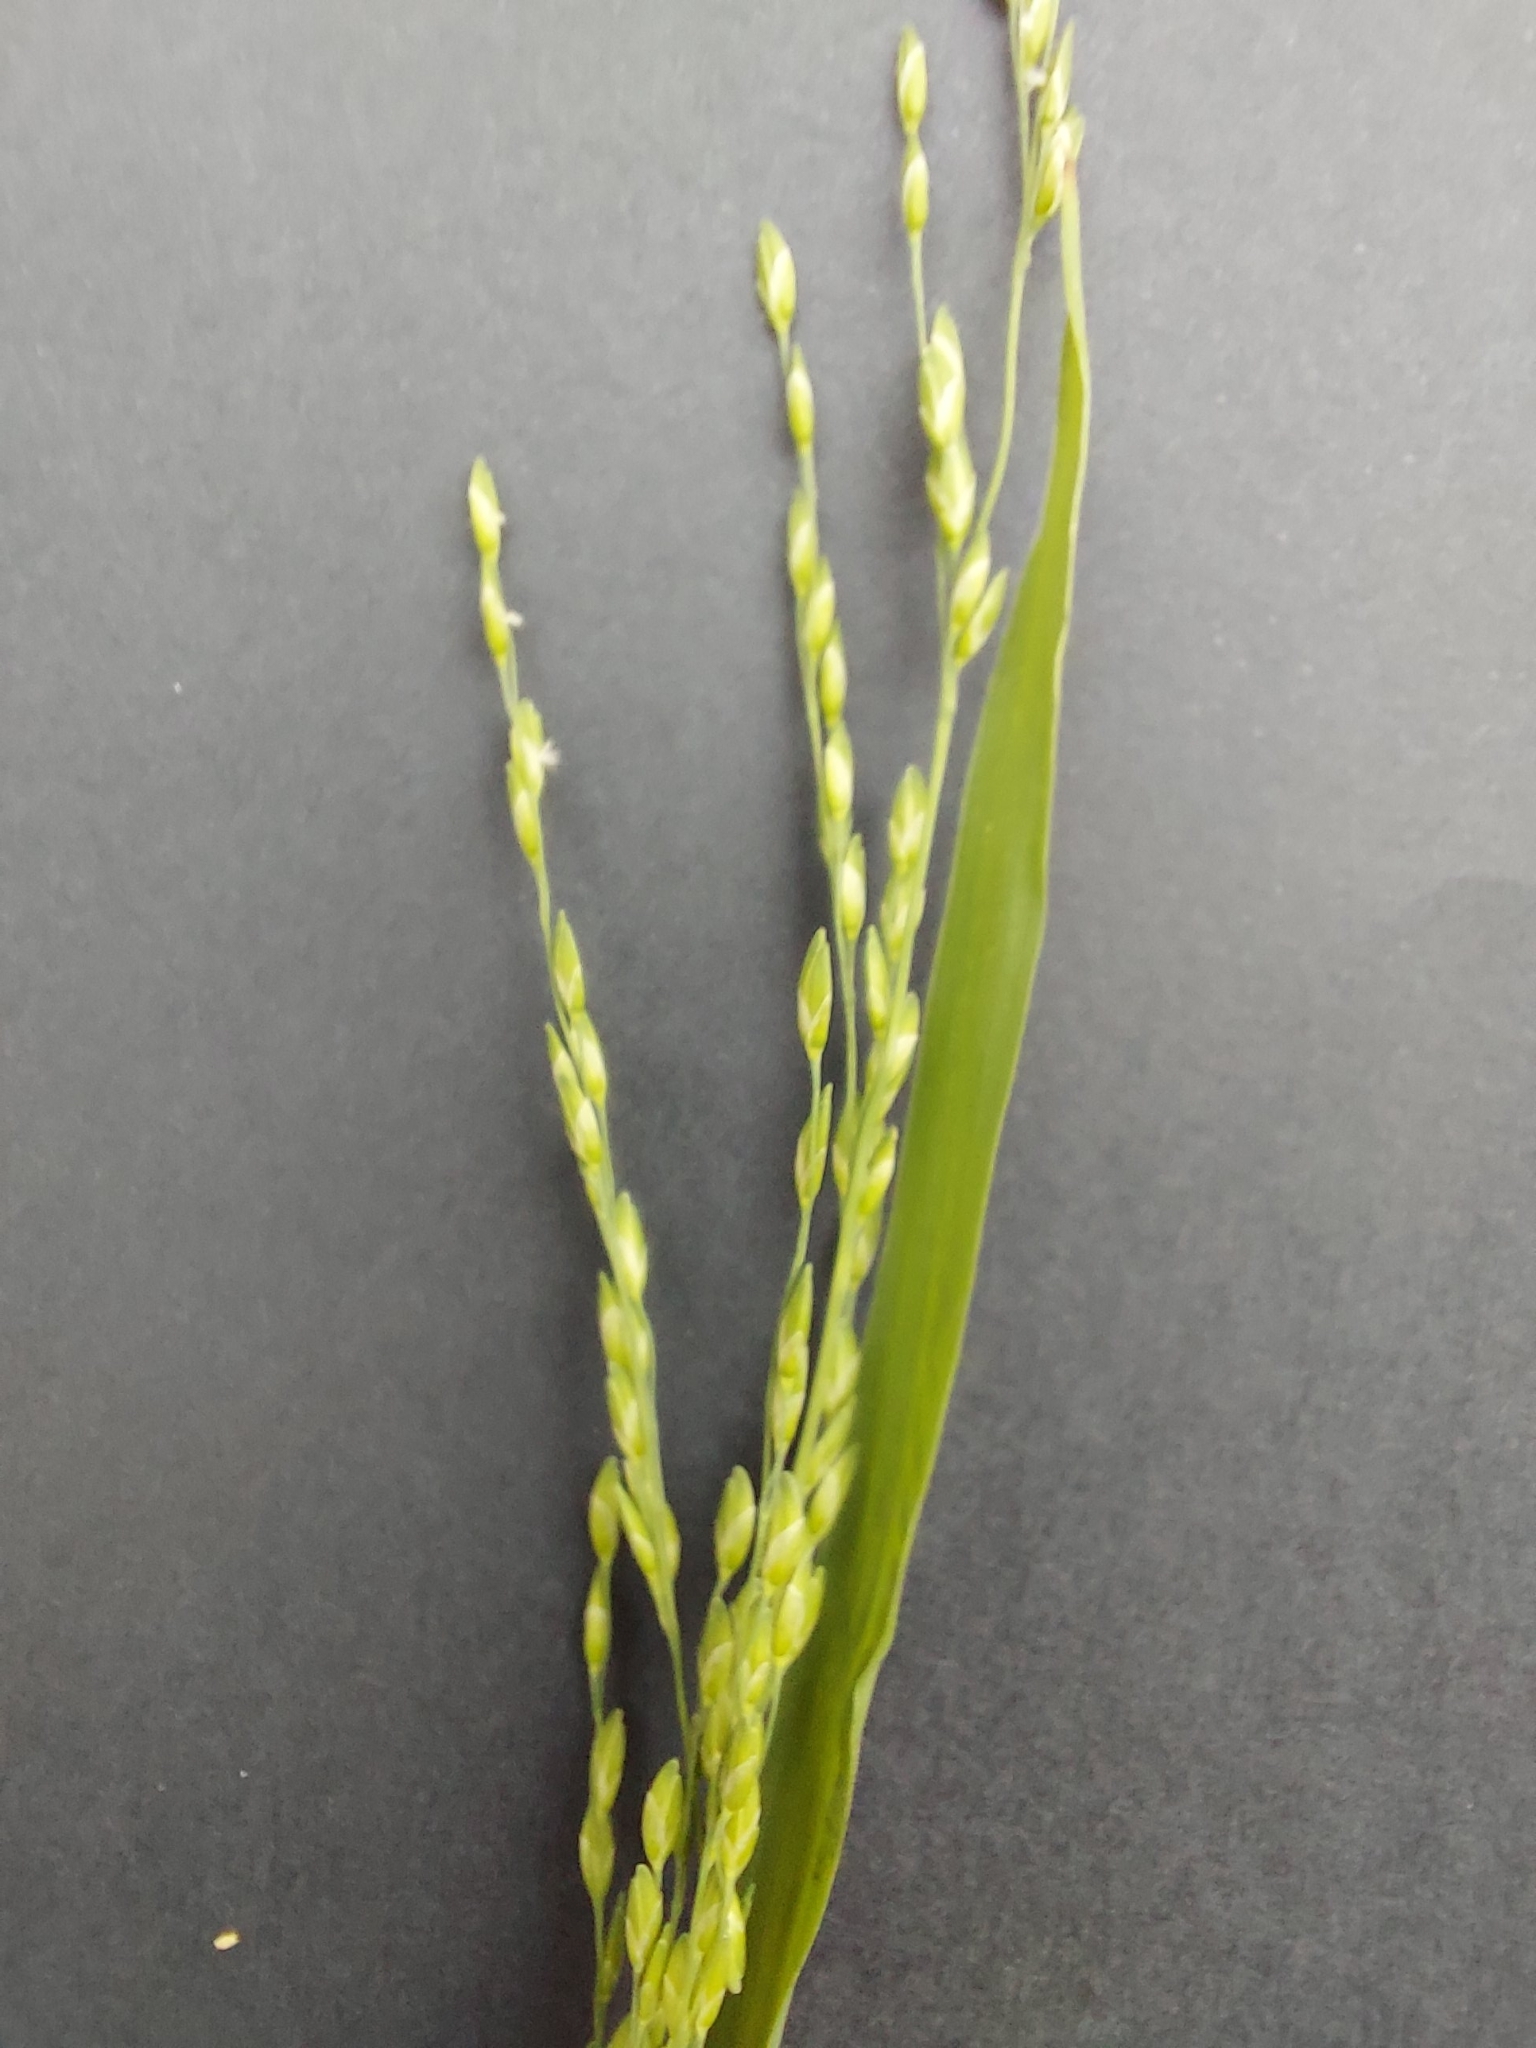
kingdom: Plantae
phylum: Tracheophyta
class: Liliopsida
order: Poales
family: Poaceae
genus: Ehrharta
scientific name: Ehrharta erecta
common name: Panic veldtgrass
